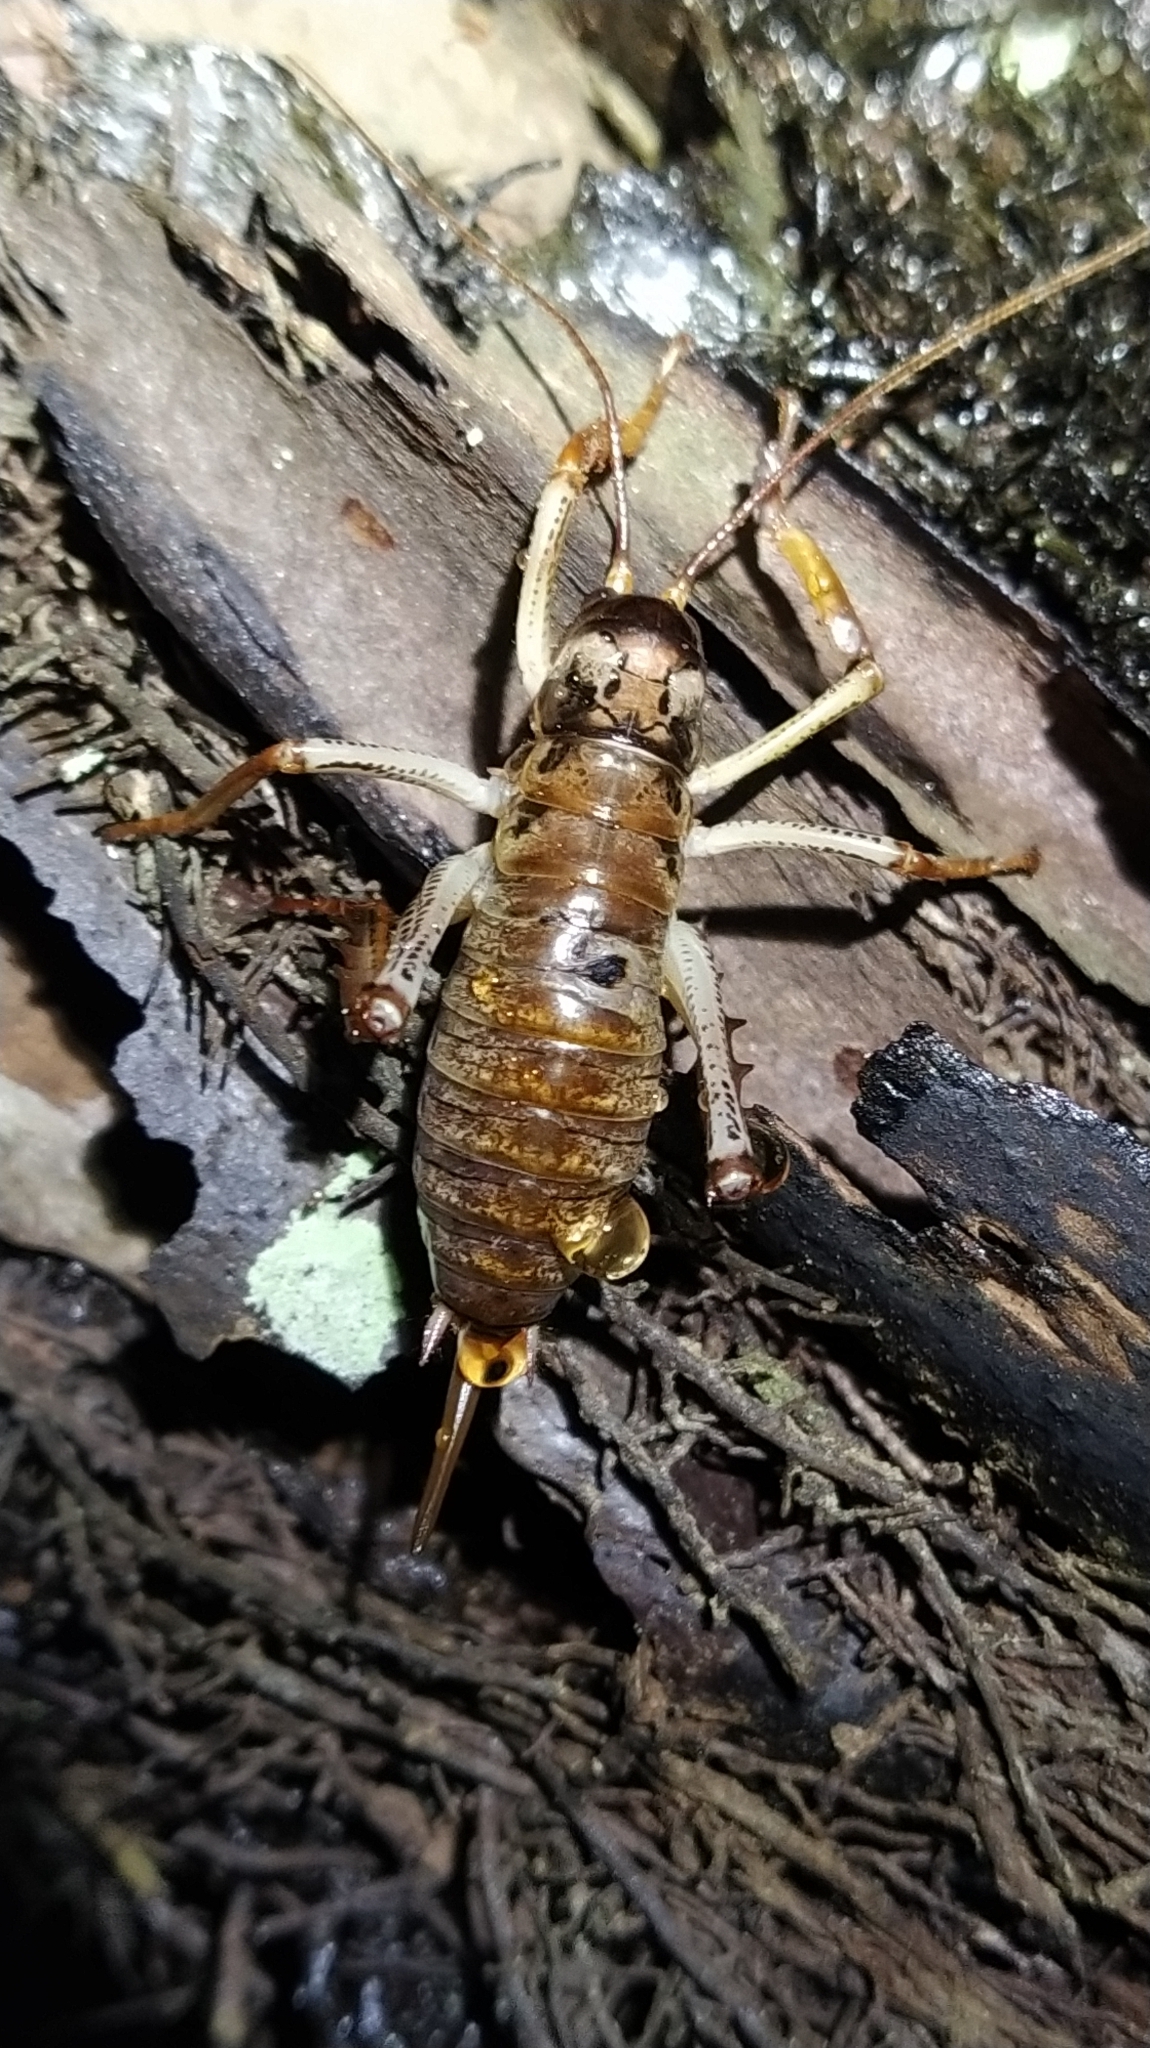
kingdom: Animalia
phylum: Arthropoda
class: Insecta
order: Orthoptera
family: Anostostomatidae
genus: Hemideina
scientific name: Hemideina thoracica
